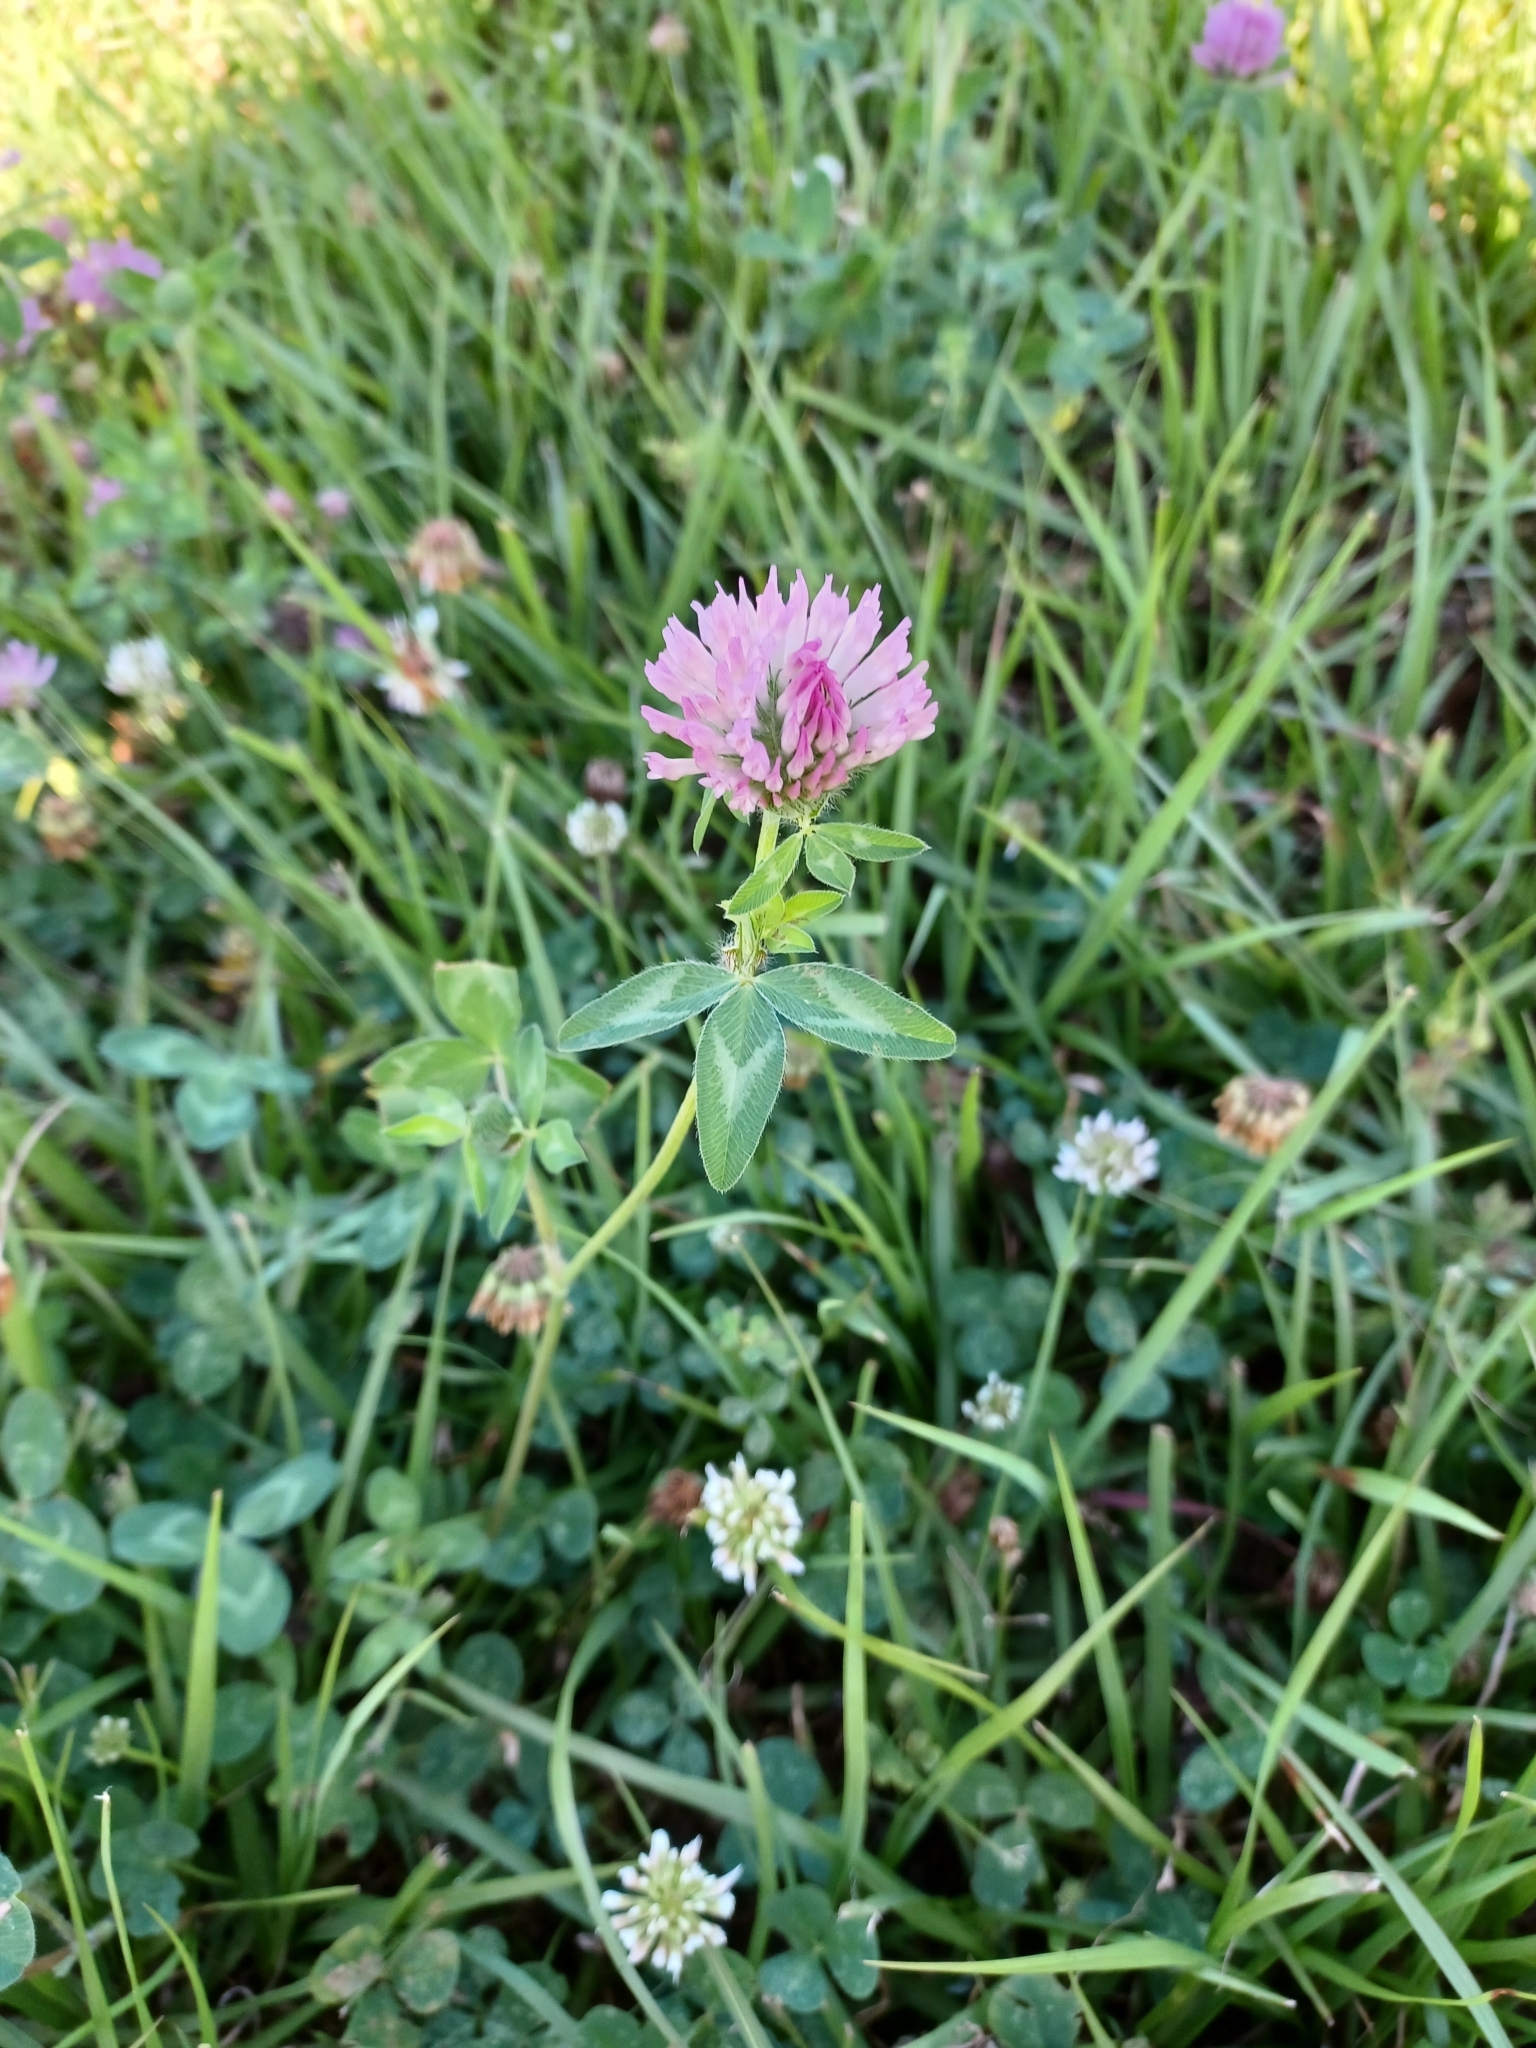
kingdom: Plantae
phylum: Tracheophyta
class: Magnoliopsida
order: Fabales
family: Fabaceae
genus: Trifolium
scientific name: Trifolium pratense
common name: Red clover
